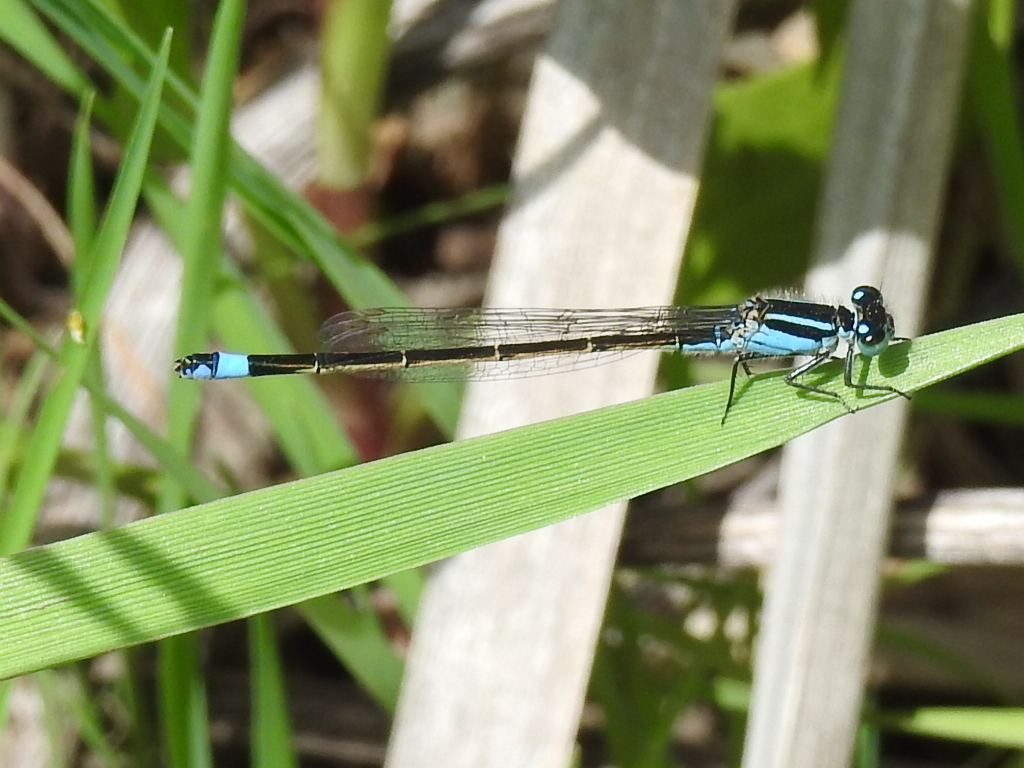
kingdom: Animalia
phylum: Arthropoda
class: Insecta
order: Odonata
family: Coenagrionidae
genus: Ischnura
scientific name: Ischnura ramburii
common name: Rambur's forktail
